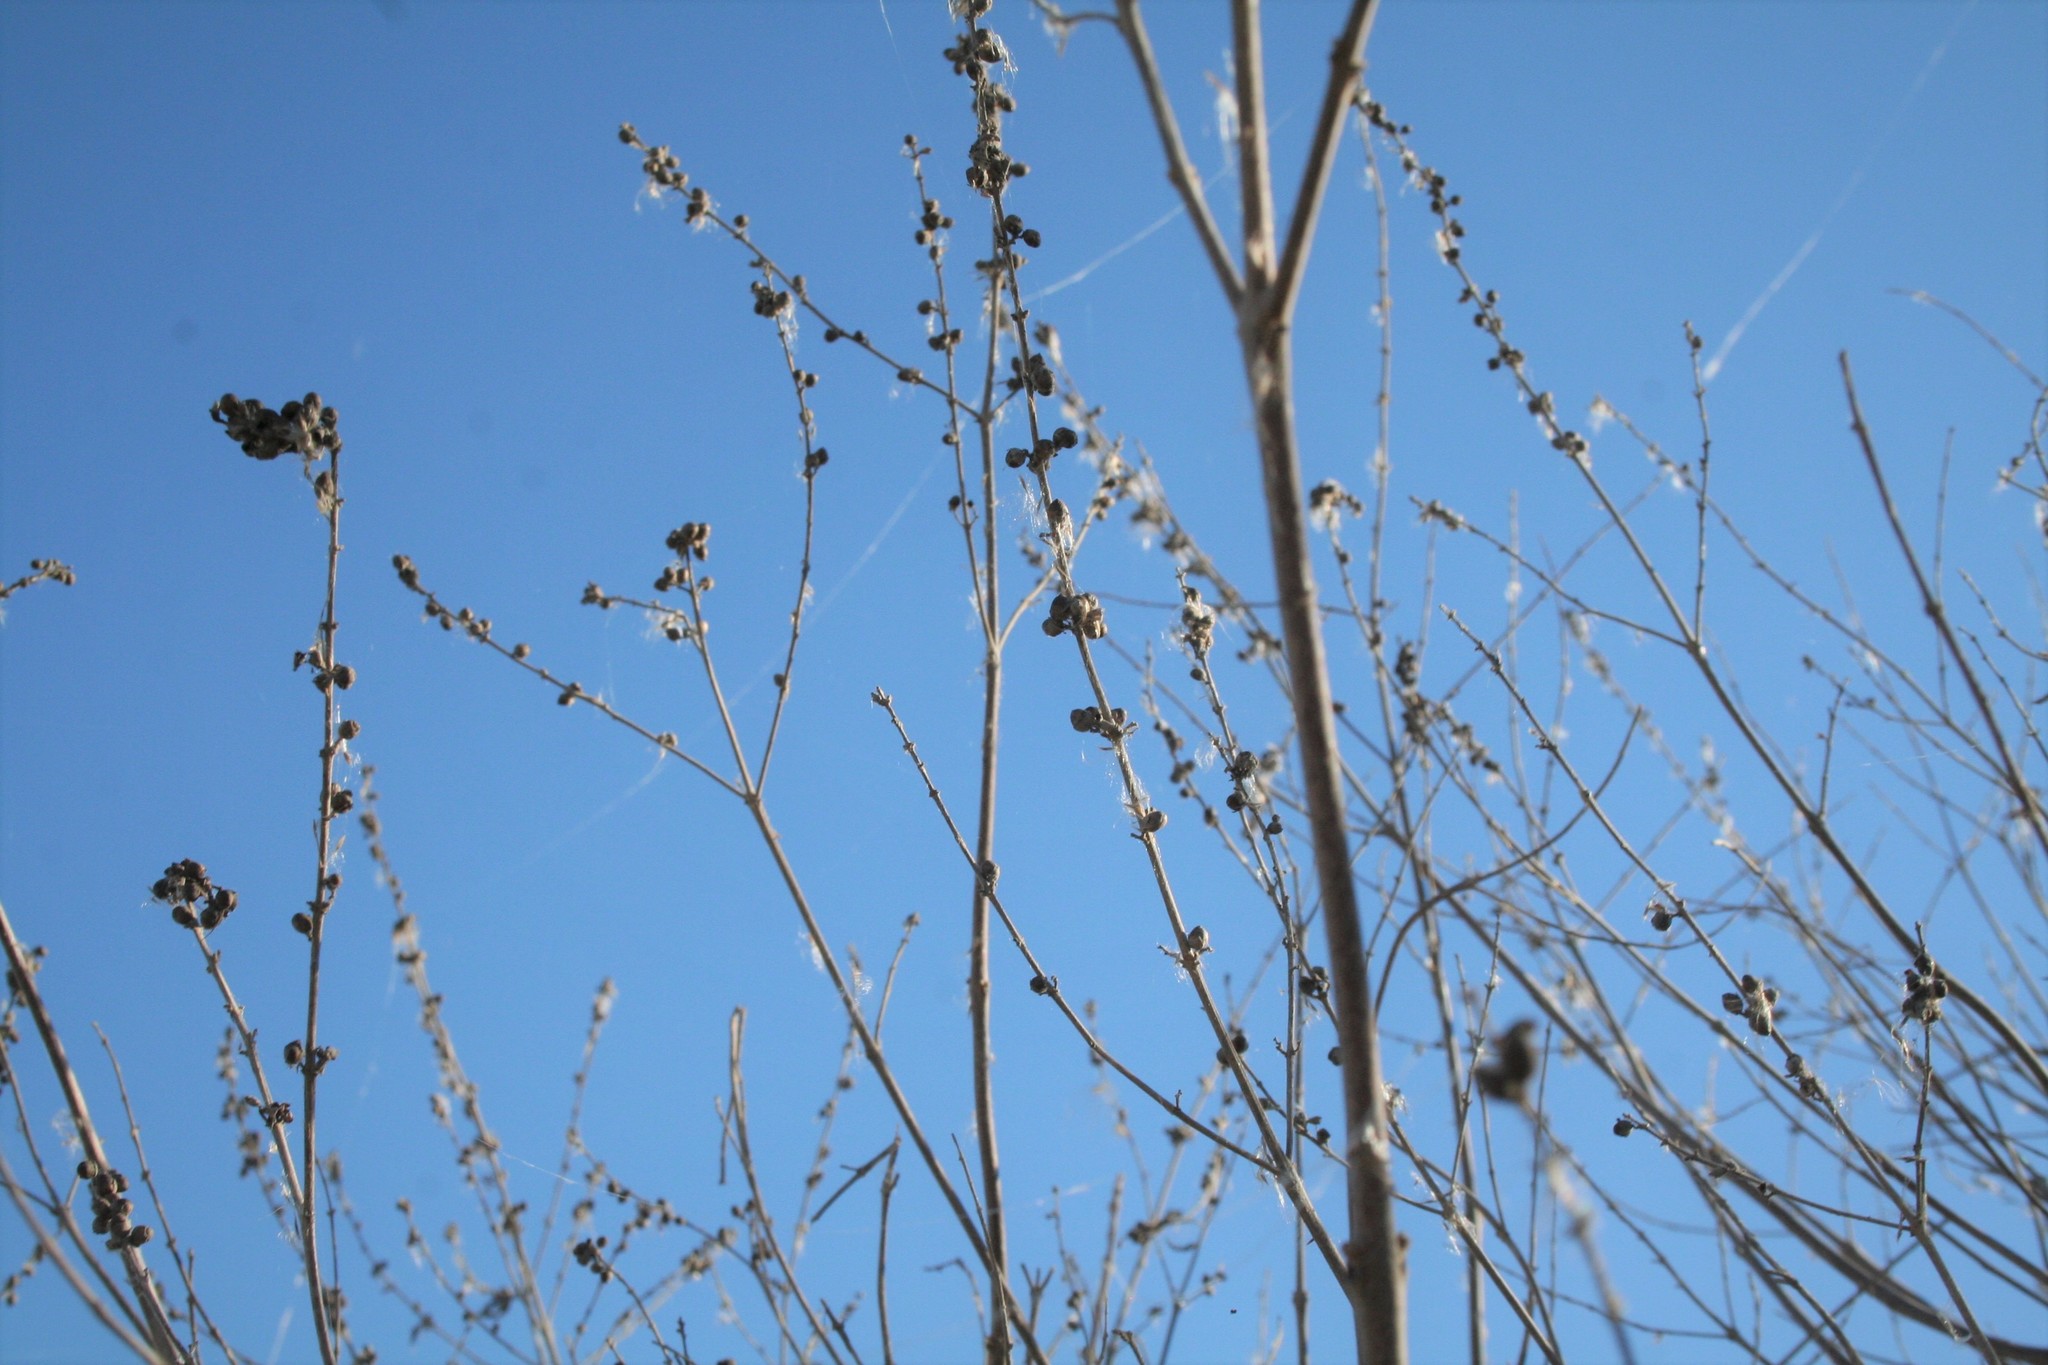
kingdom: Plantae
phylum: Tracheophyta
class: Magnoliopsida
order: Caryophyllales
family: Tamaricaceae
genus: Tamarix
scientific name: Tamarix
